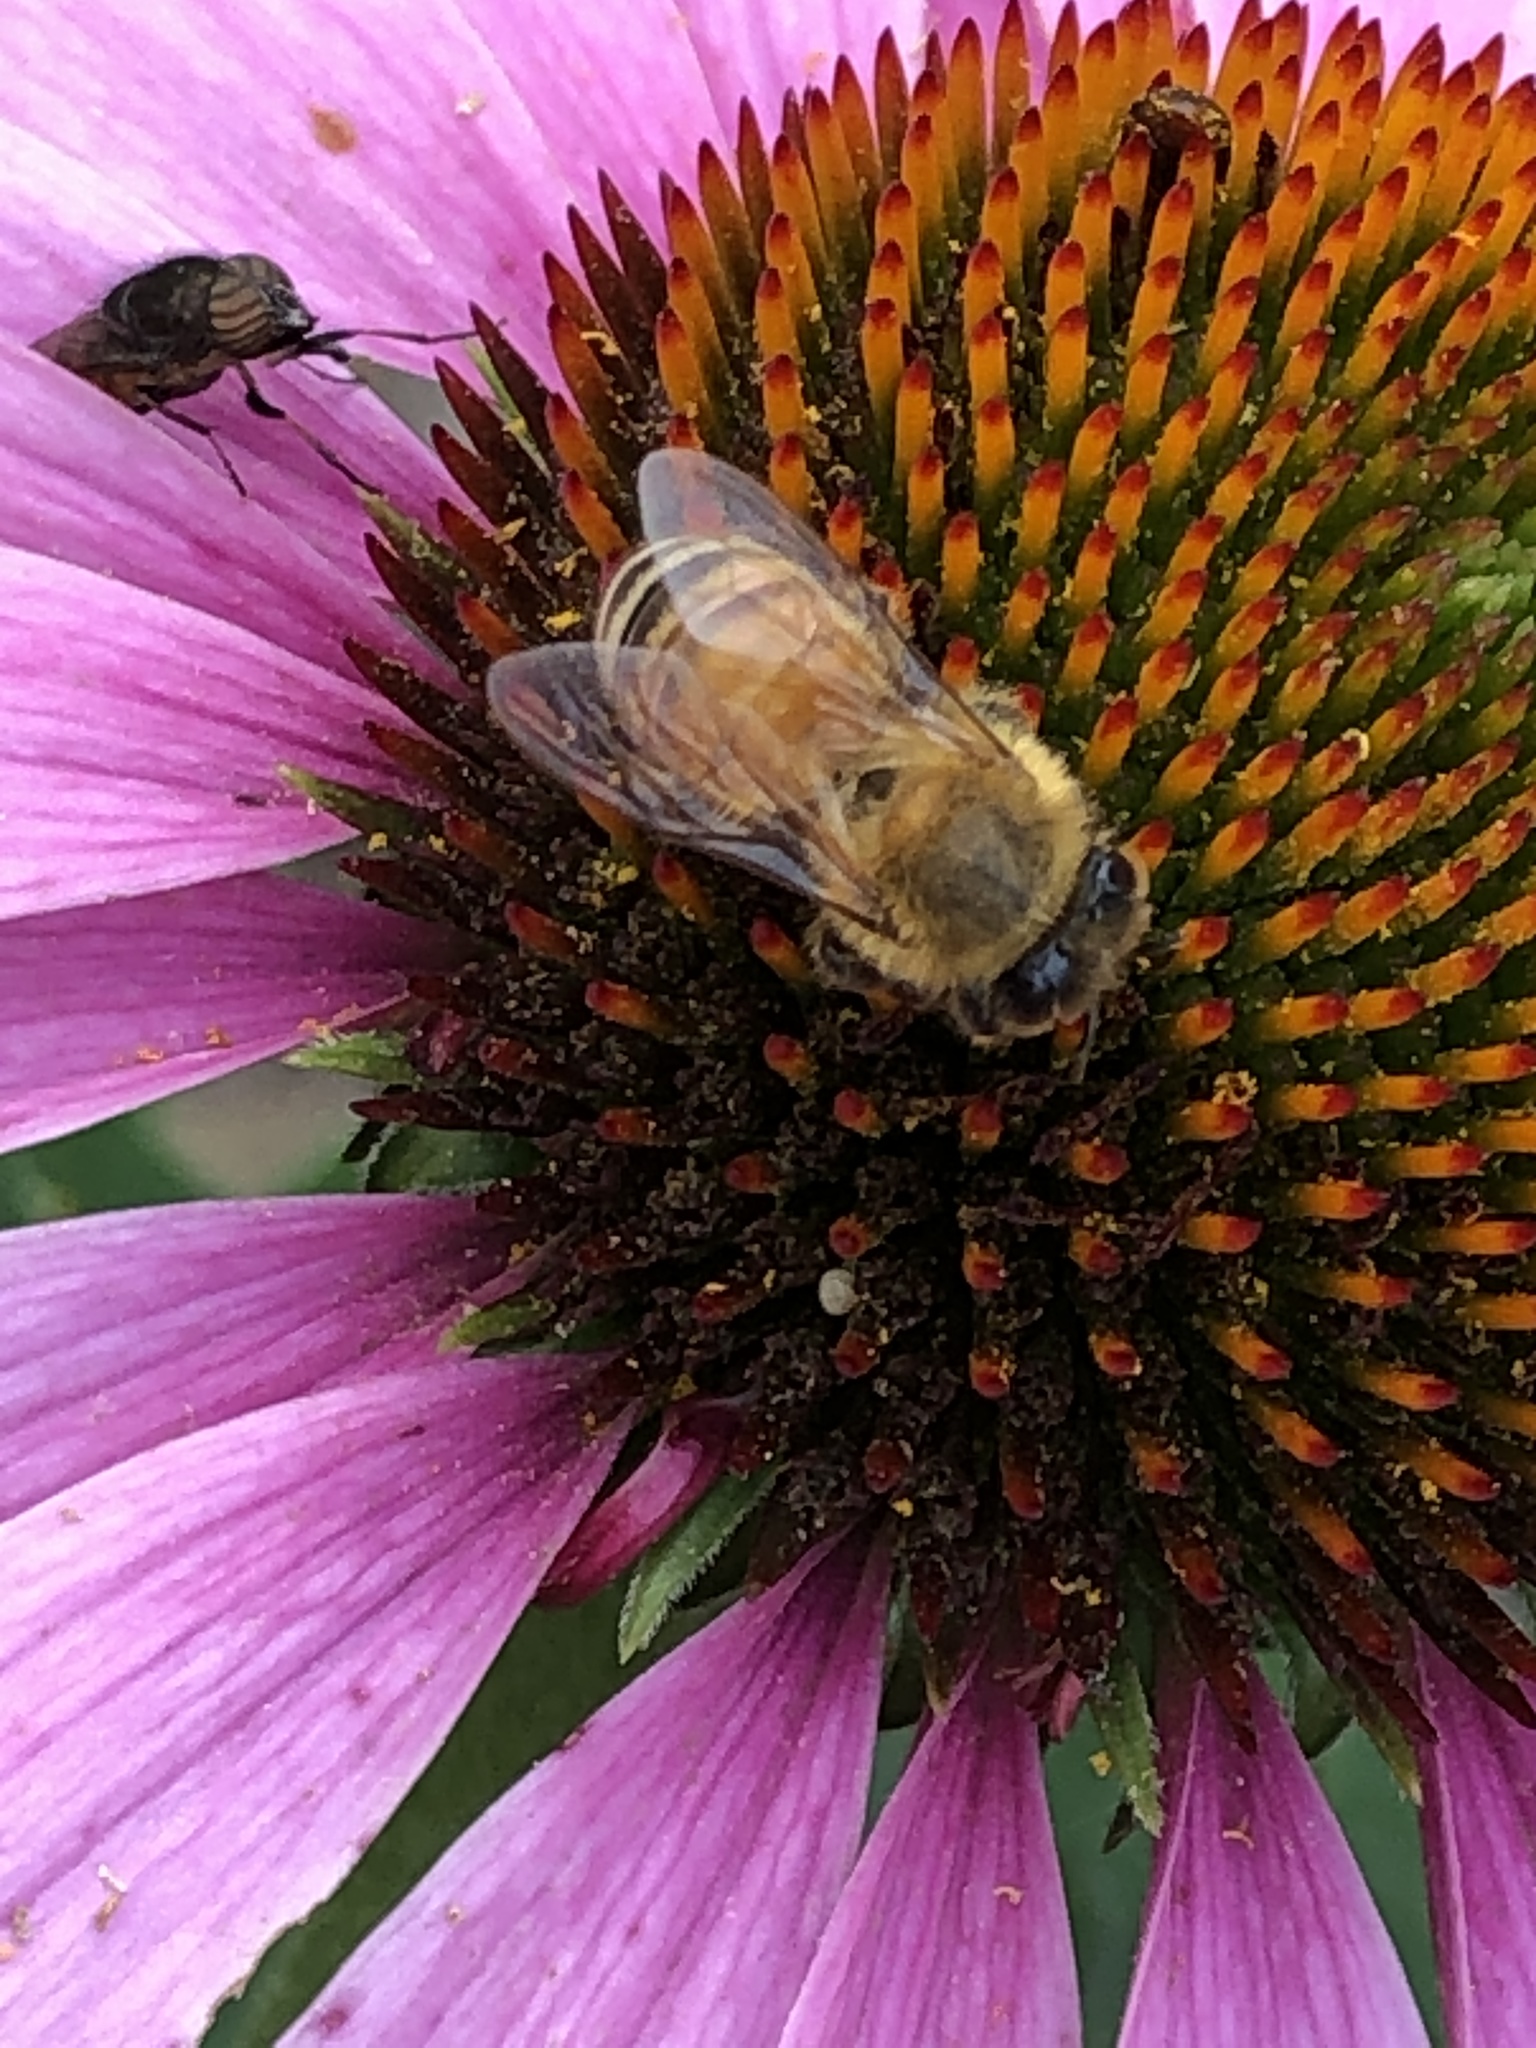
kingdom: Animalia
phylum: Arthropoda
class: Insecta
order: Hymenoptera
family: Apidae
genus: Apis
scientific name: Apis mellifera
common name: Honey bee
